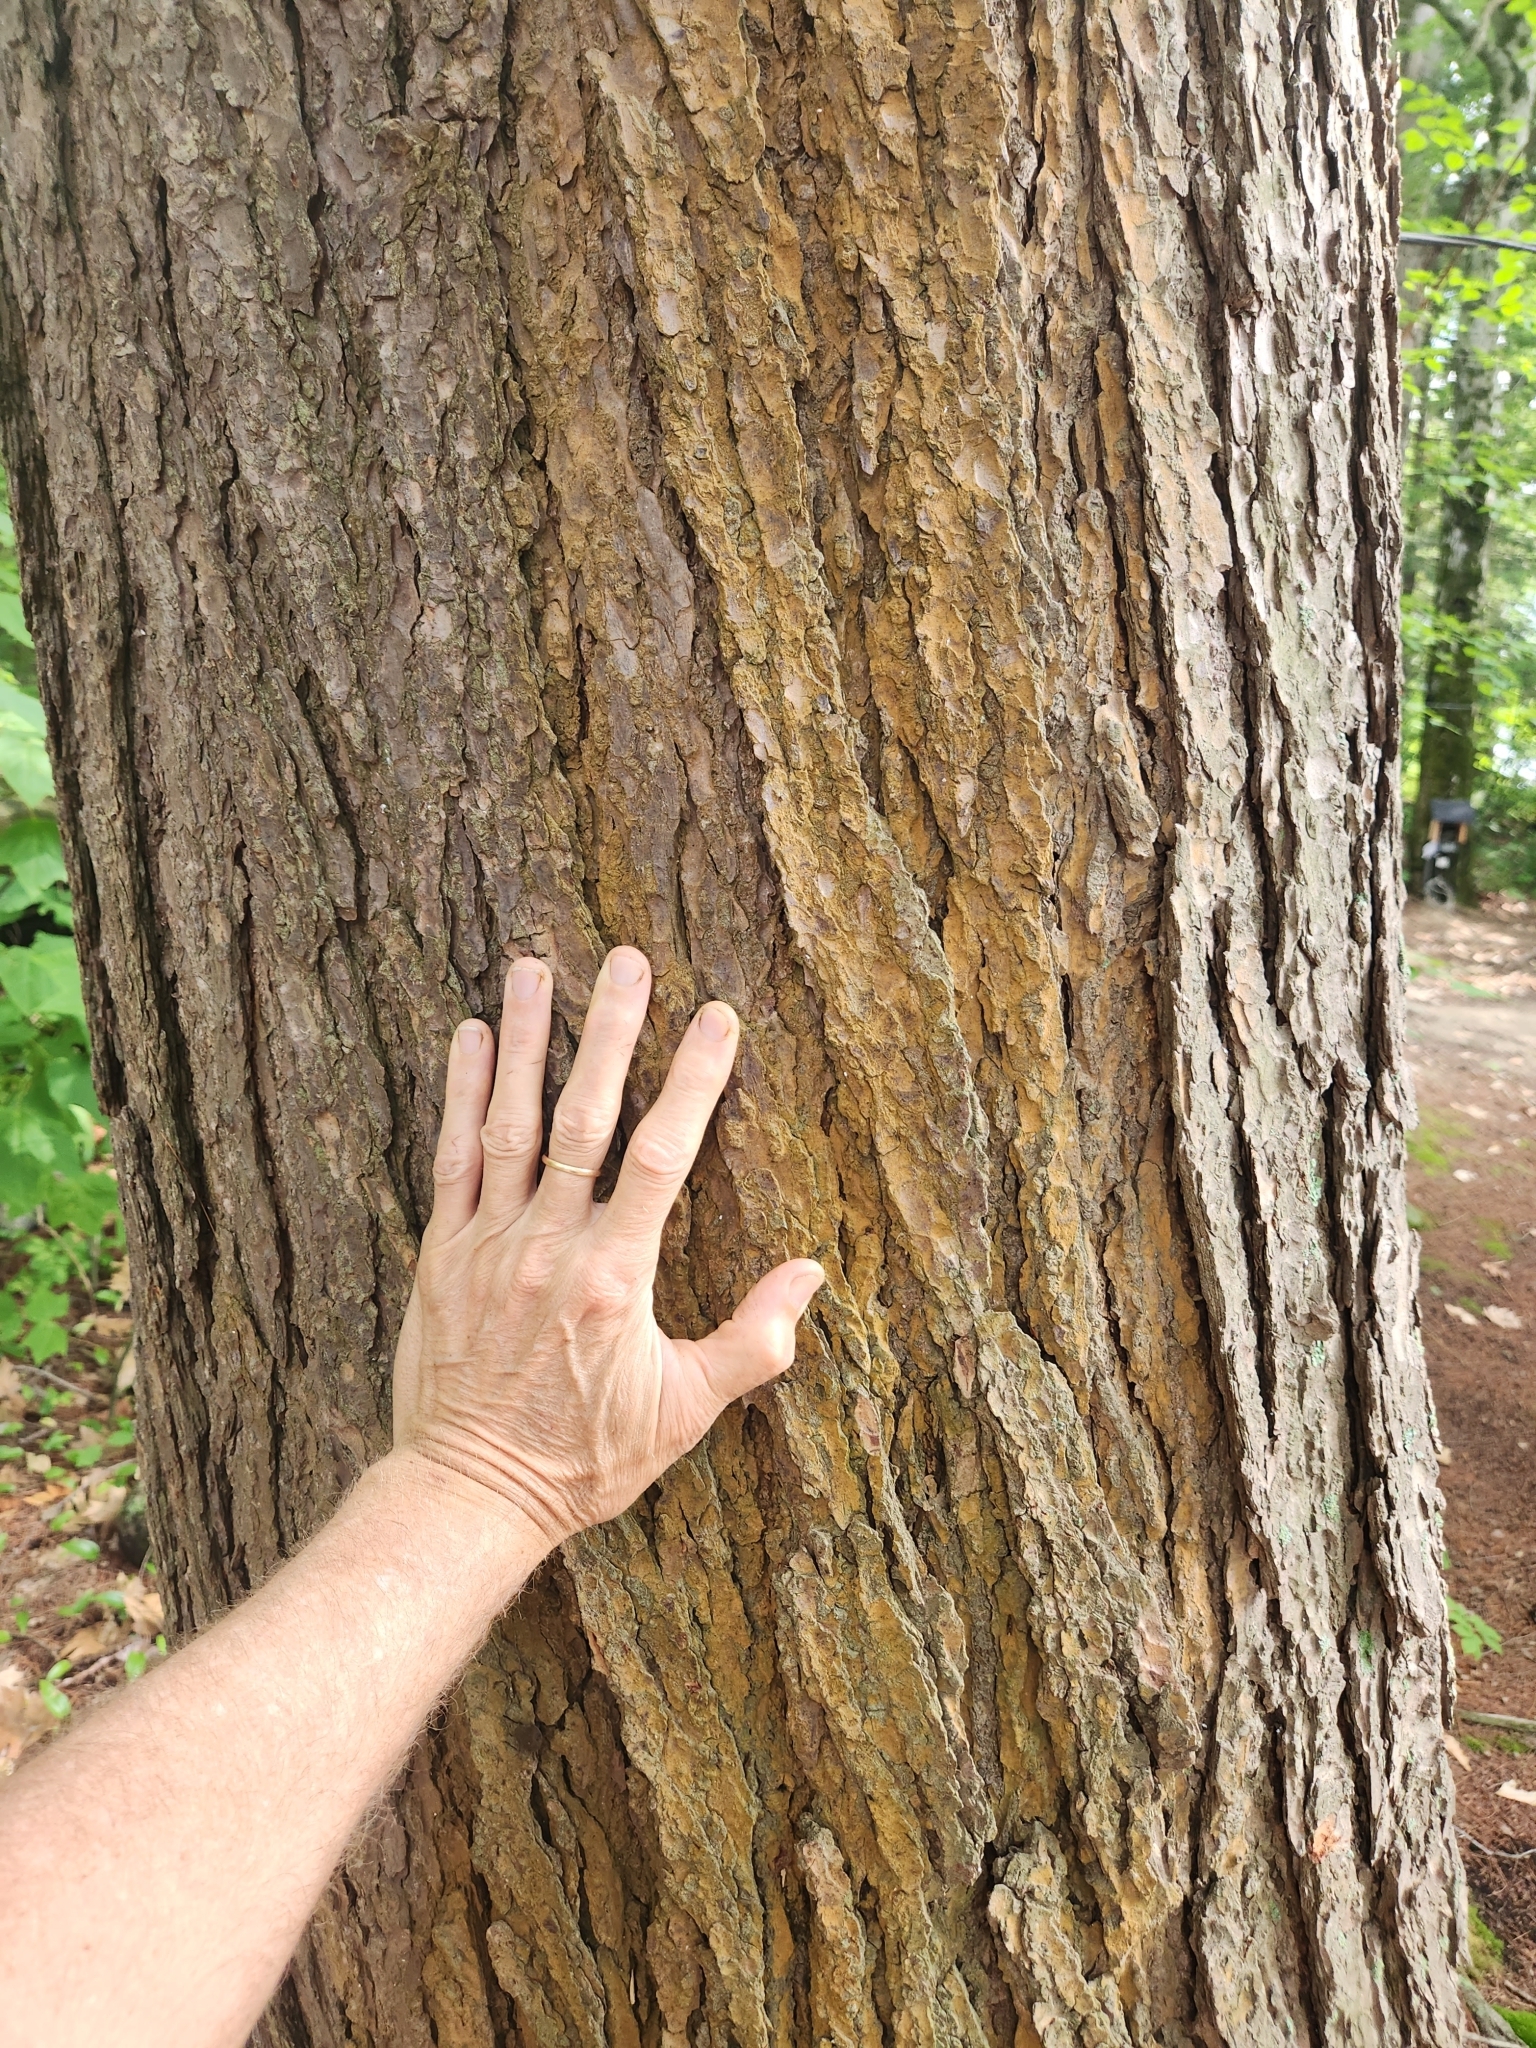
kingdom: Plantae
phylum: Tracheophyta
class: Pinopsida
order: Pinales
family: Pinaceae
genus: Tsuga
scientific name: Tsuga canadensis
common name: Eastern hemlock
